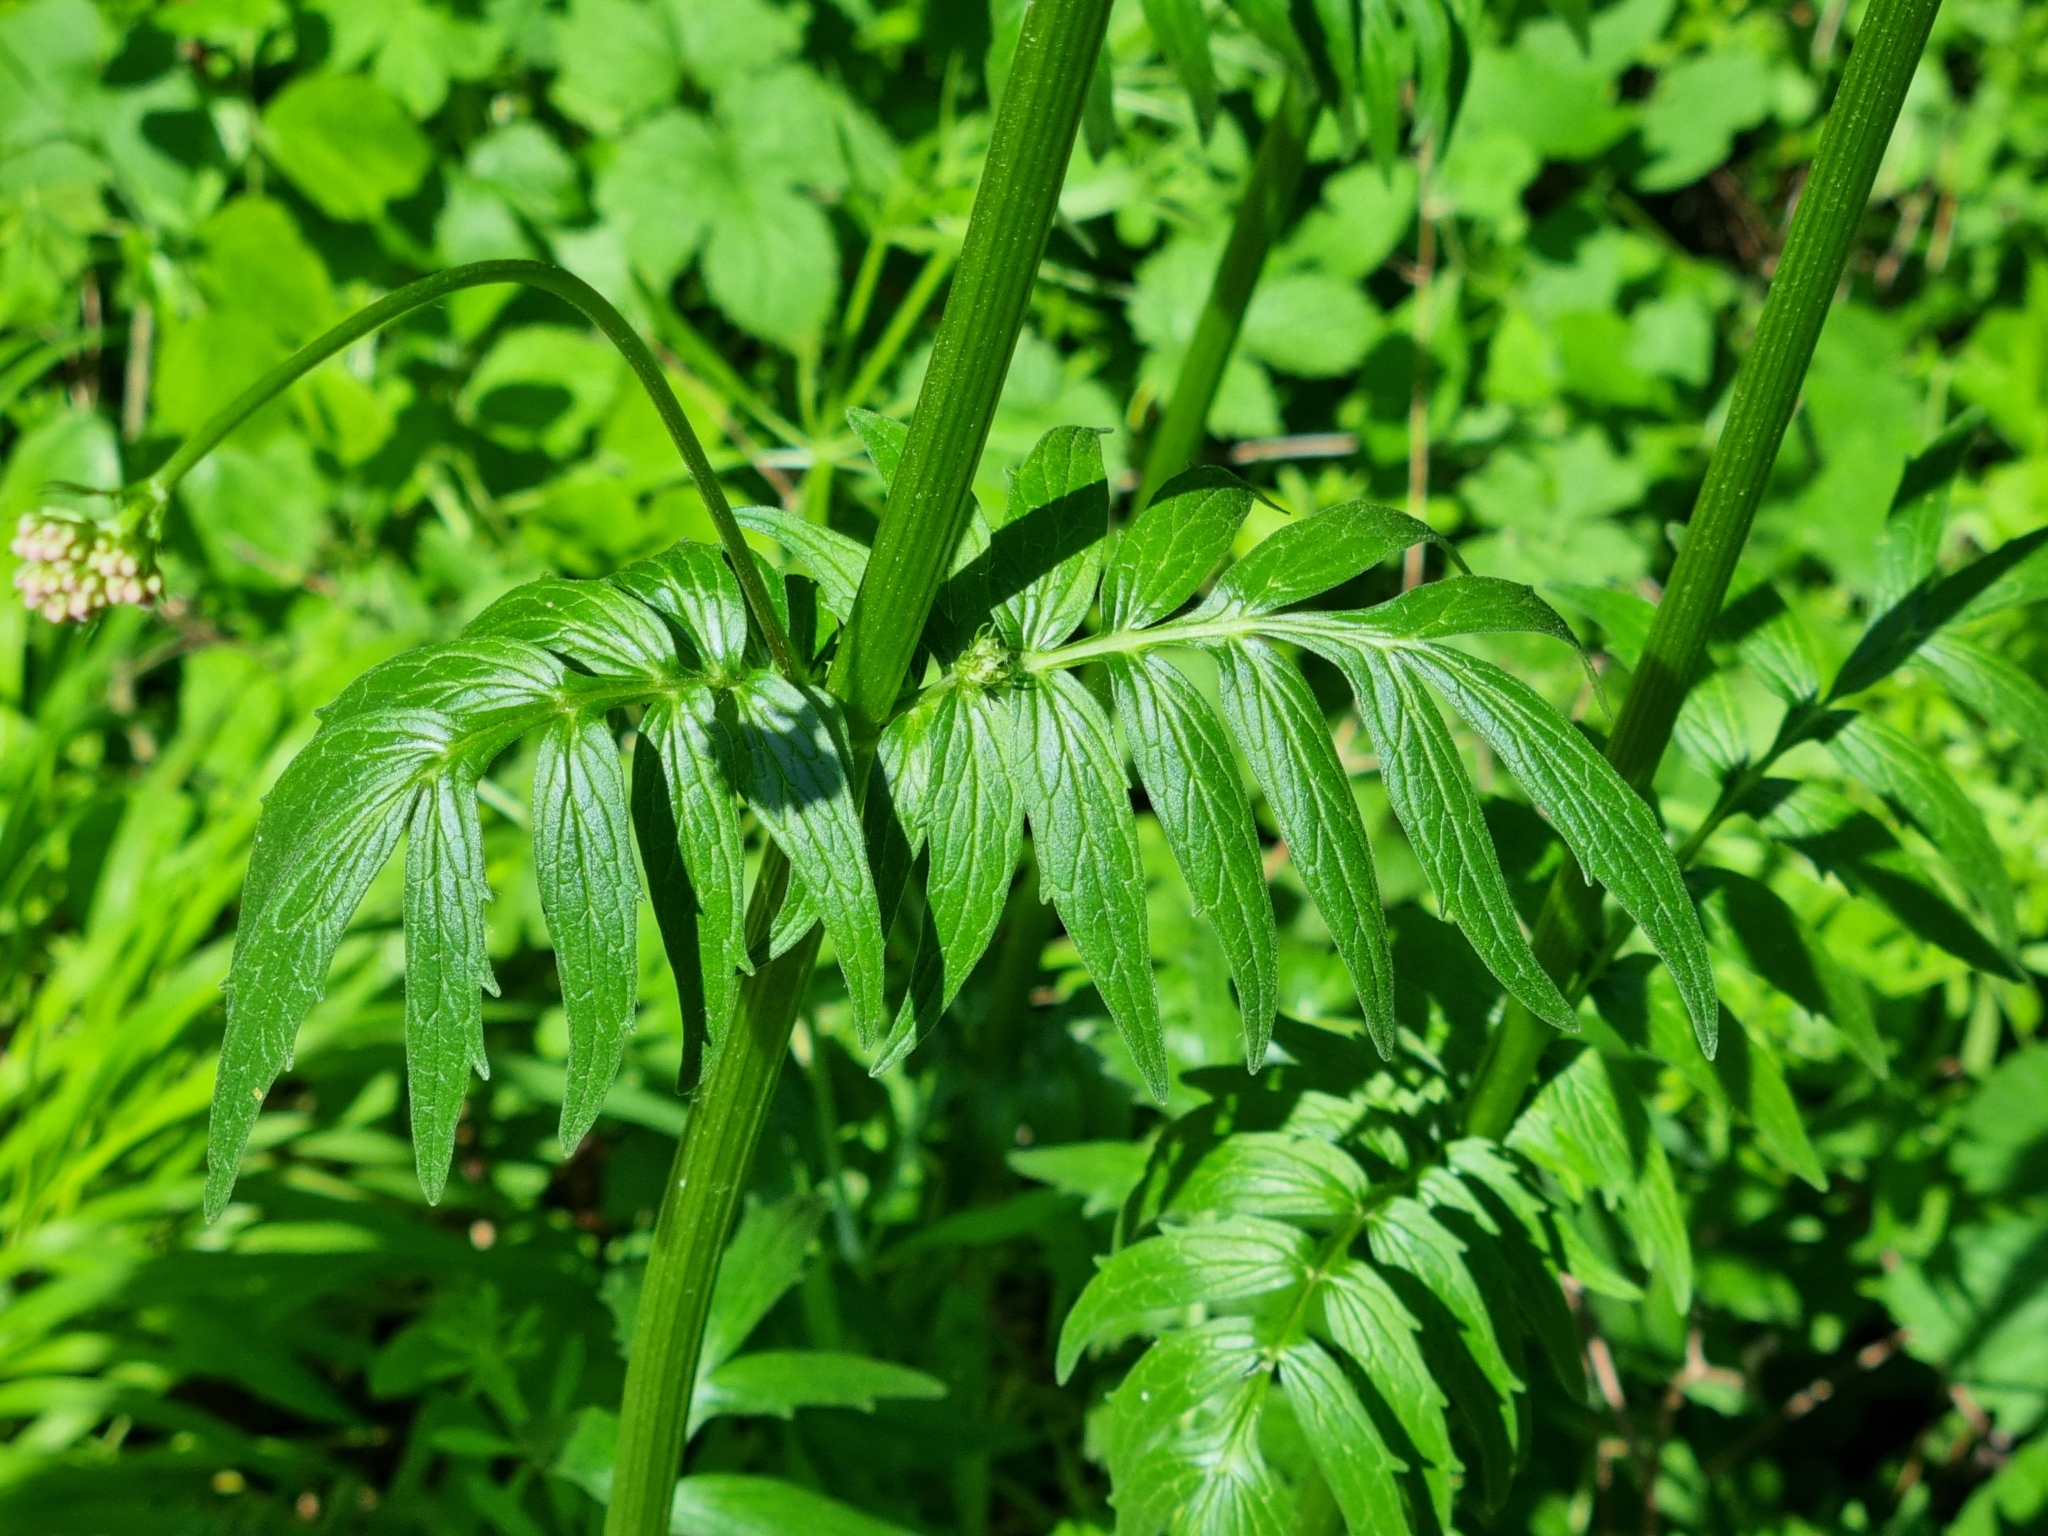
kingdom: Plantae
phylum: Tracheophyta
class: Magnoliopsida
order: Dipsacales
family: Caprifoliaceae
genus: Valeriana
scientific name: Valeriana officinalis
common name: Common valerian
